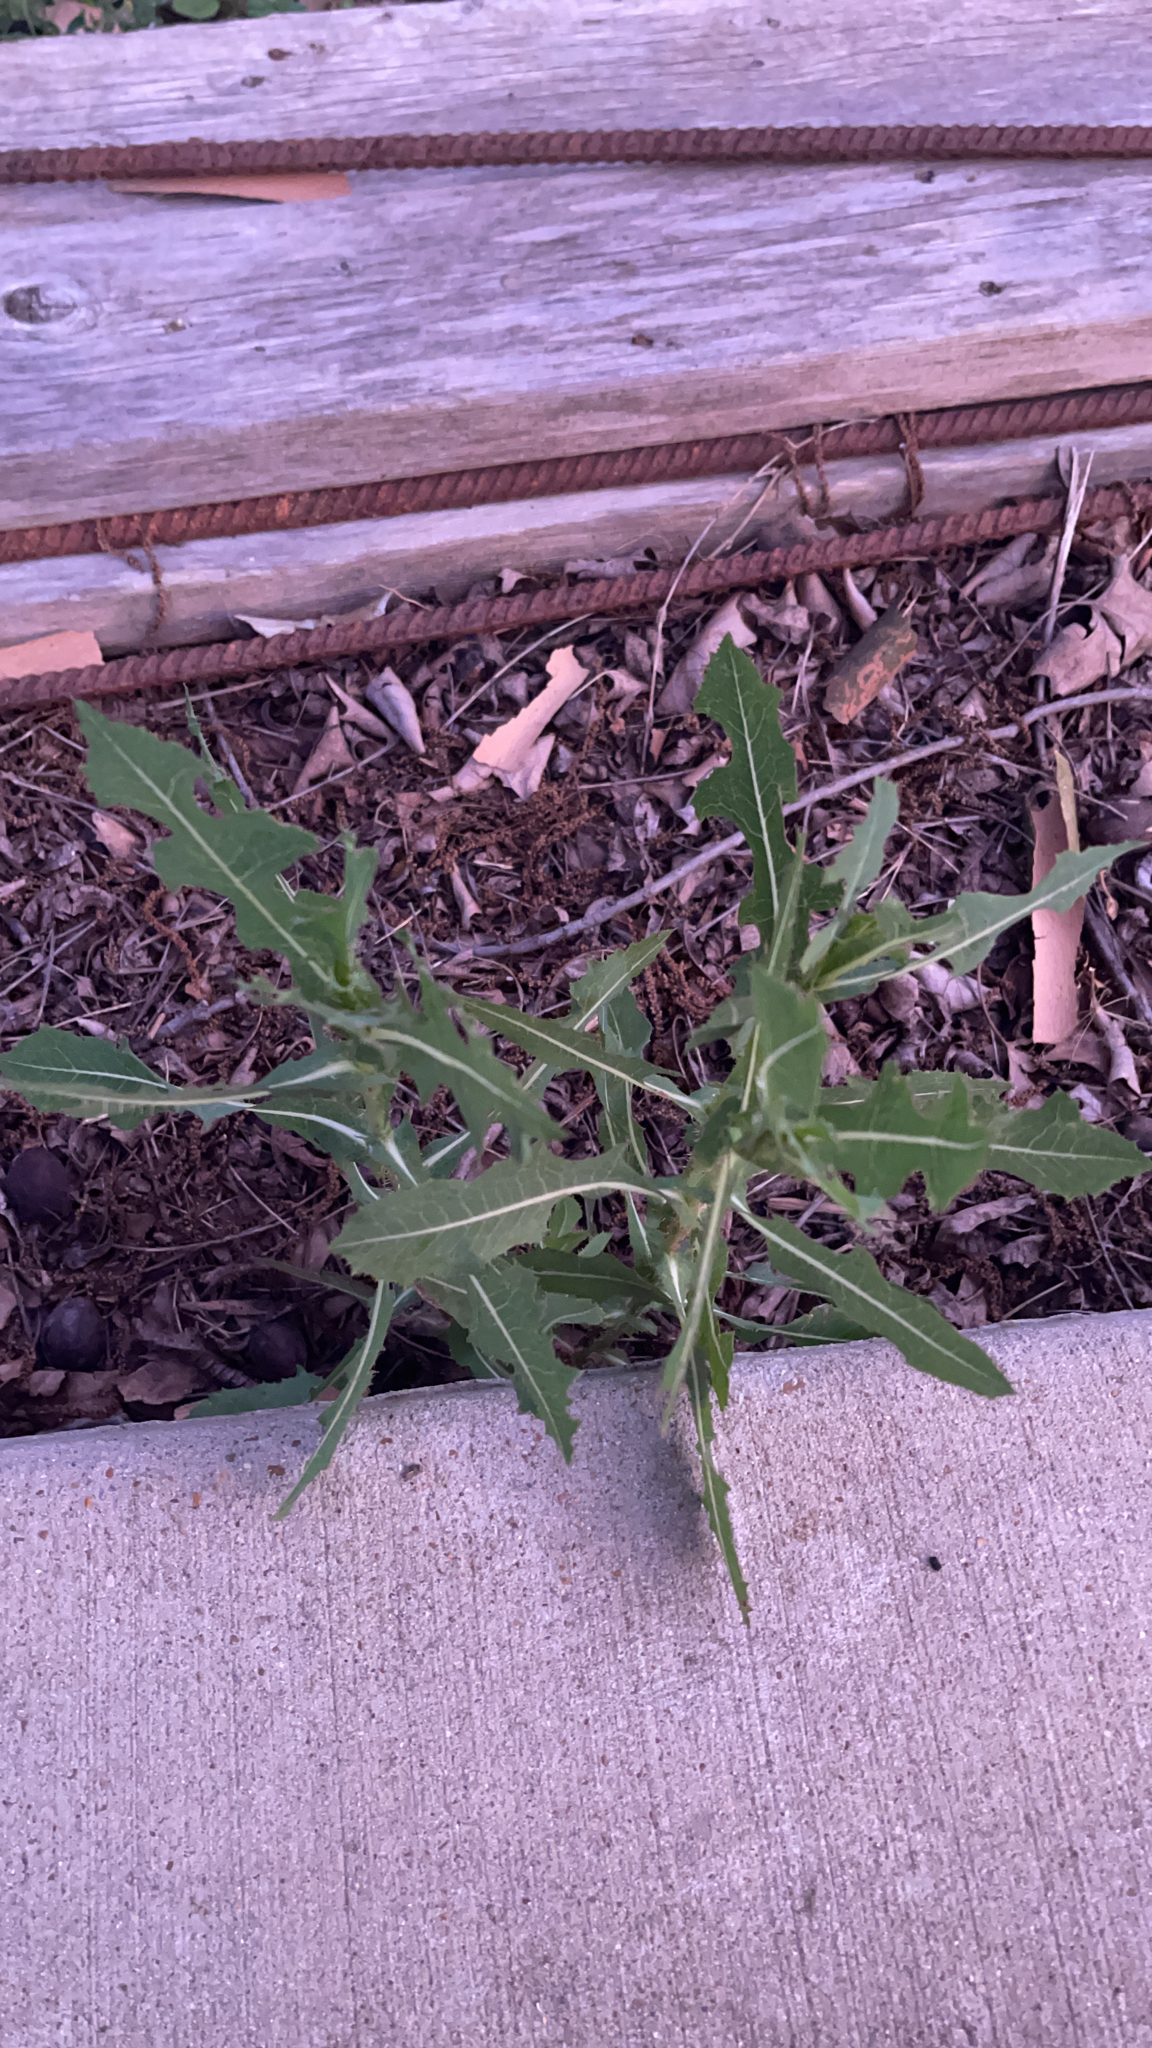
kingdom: Plantae
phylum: Tracheophyta
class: Magnoliopsida
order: Asterales
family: Asteraceae
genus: Lactuca
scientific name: Lactuca serriola
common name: Prickly lettuce
